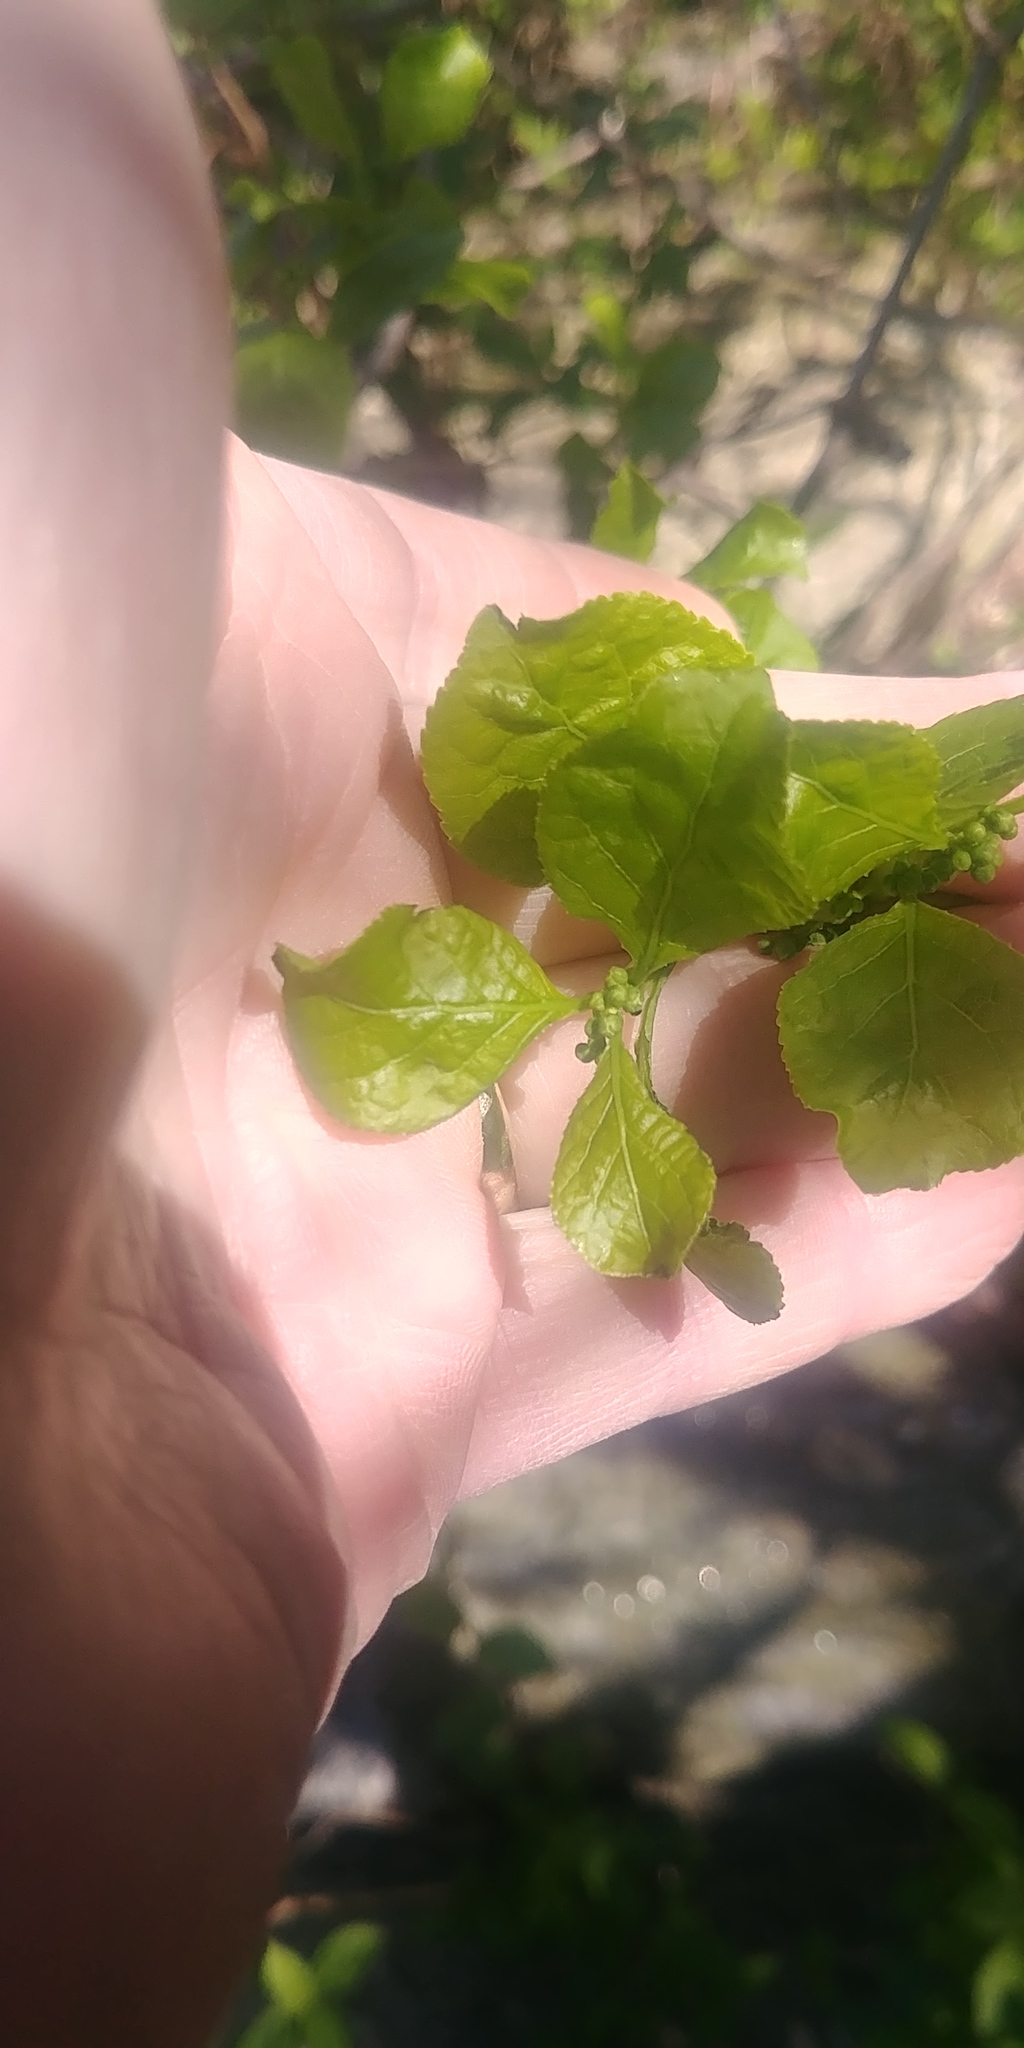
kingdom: Plantae
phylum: Tracheophyta
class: Magnoliopsida
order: Celastrales
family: Celastraceae
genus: Celastrus
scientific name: Celastrus orbiculatus
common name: Oriental bittersweet
